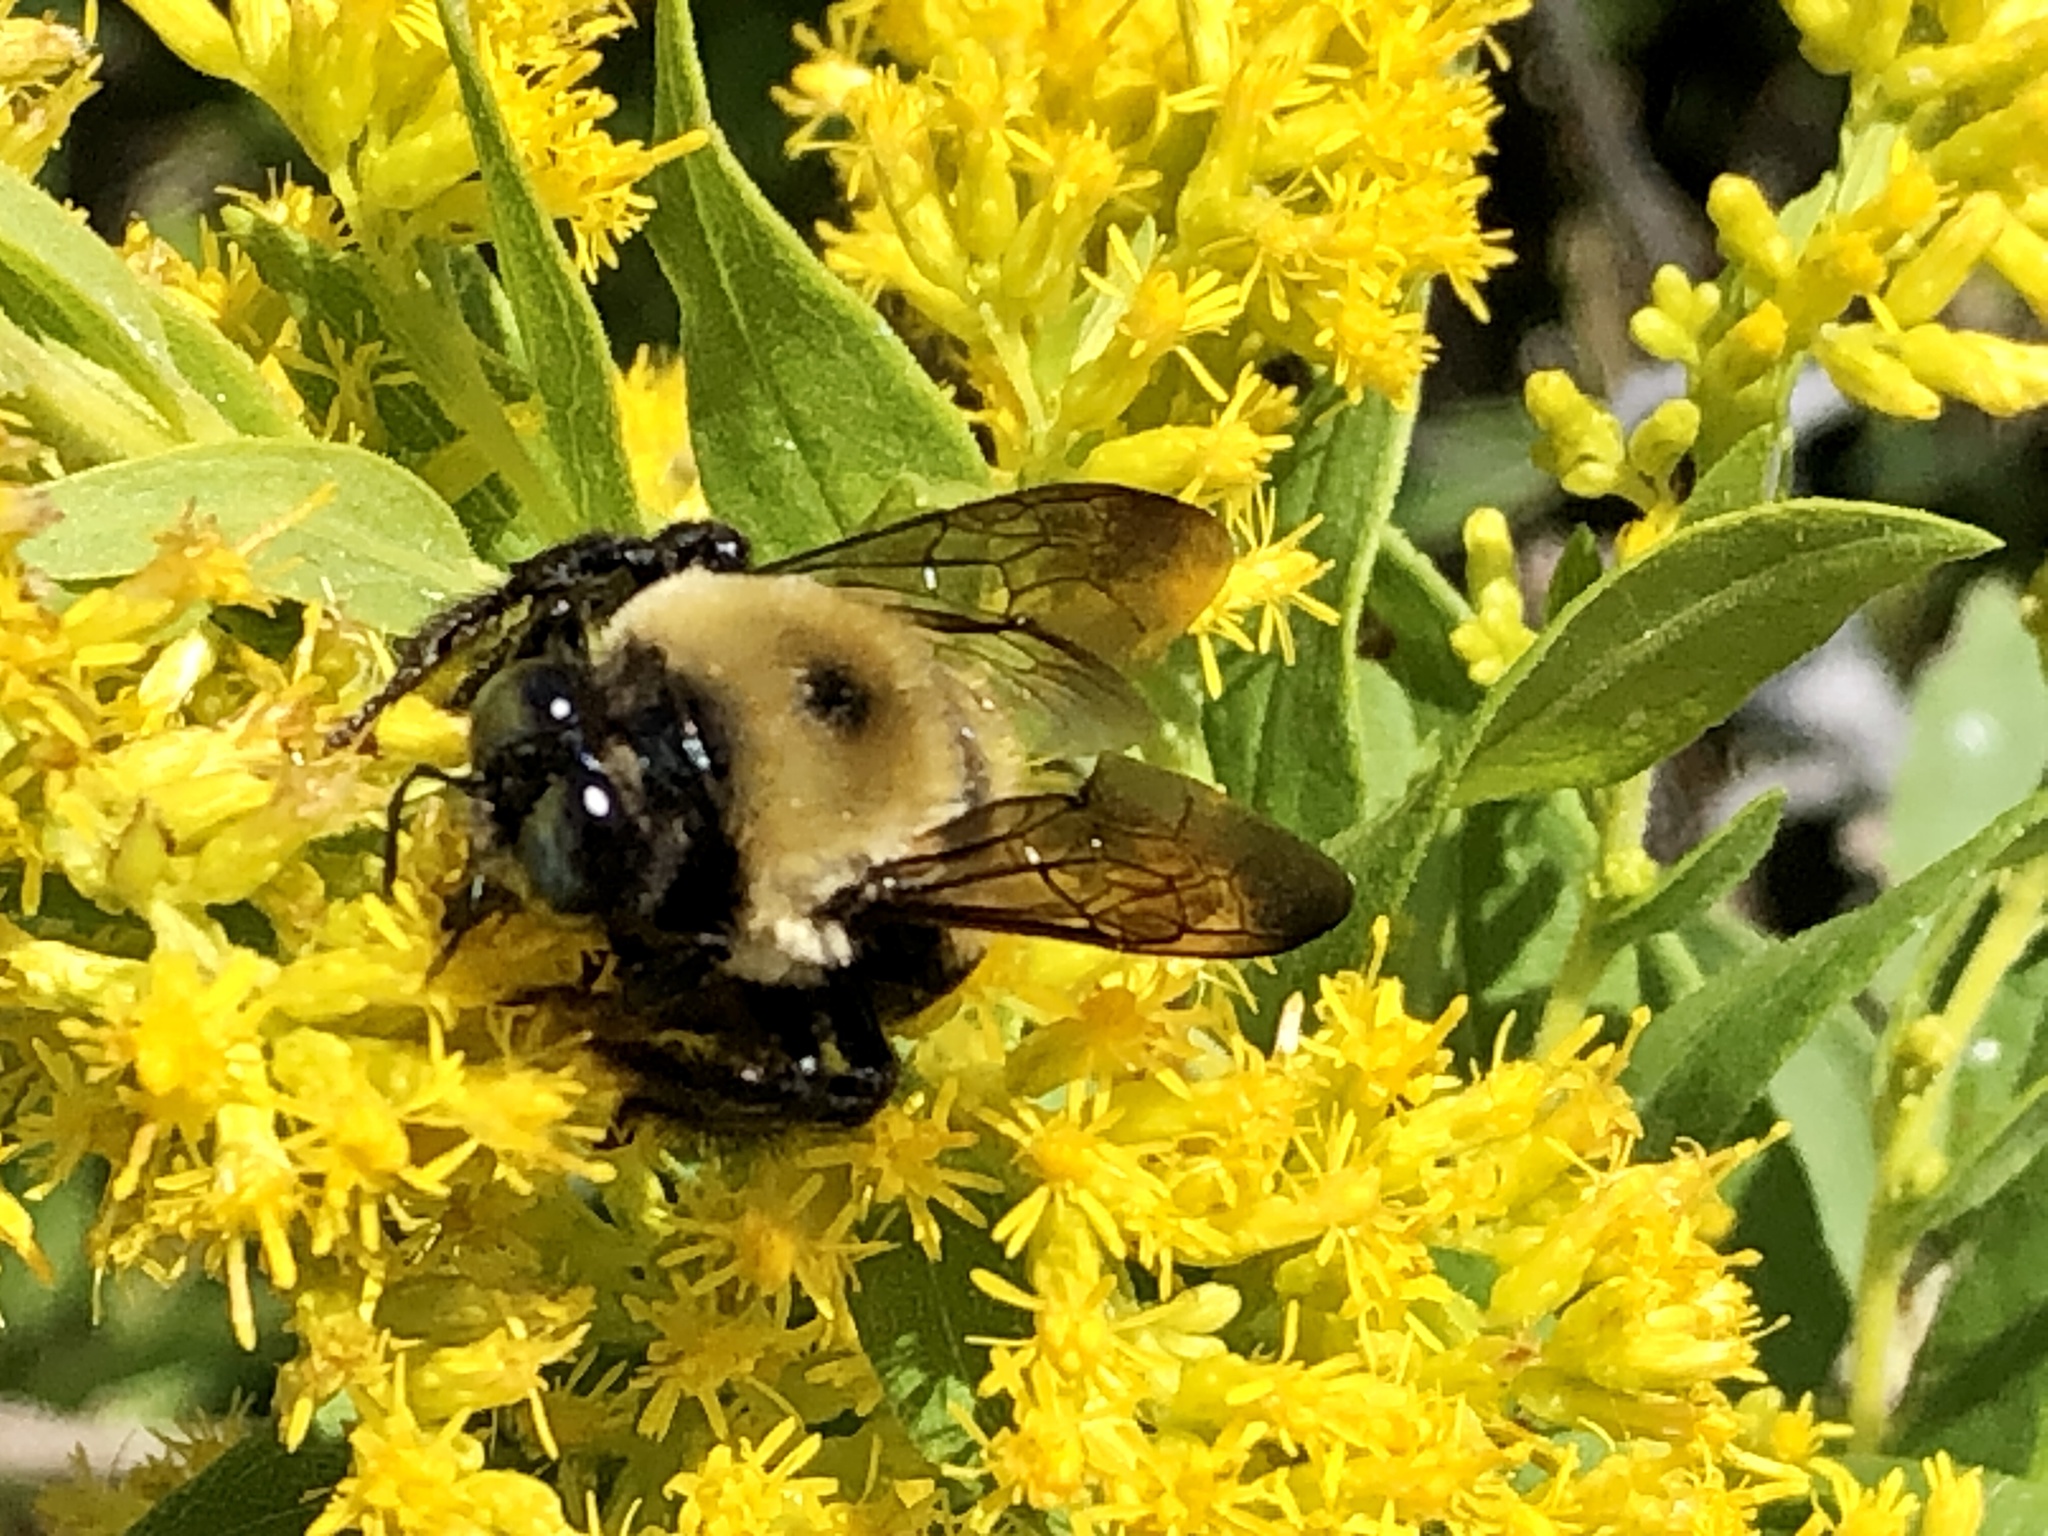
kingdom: Animalia
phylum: Arthropoda
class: Insecta
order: Hymenoptera
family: Apidae
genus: Xylocopa
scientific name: Xylocopa virginica
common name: Carpenter bee
